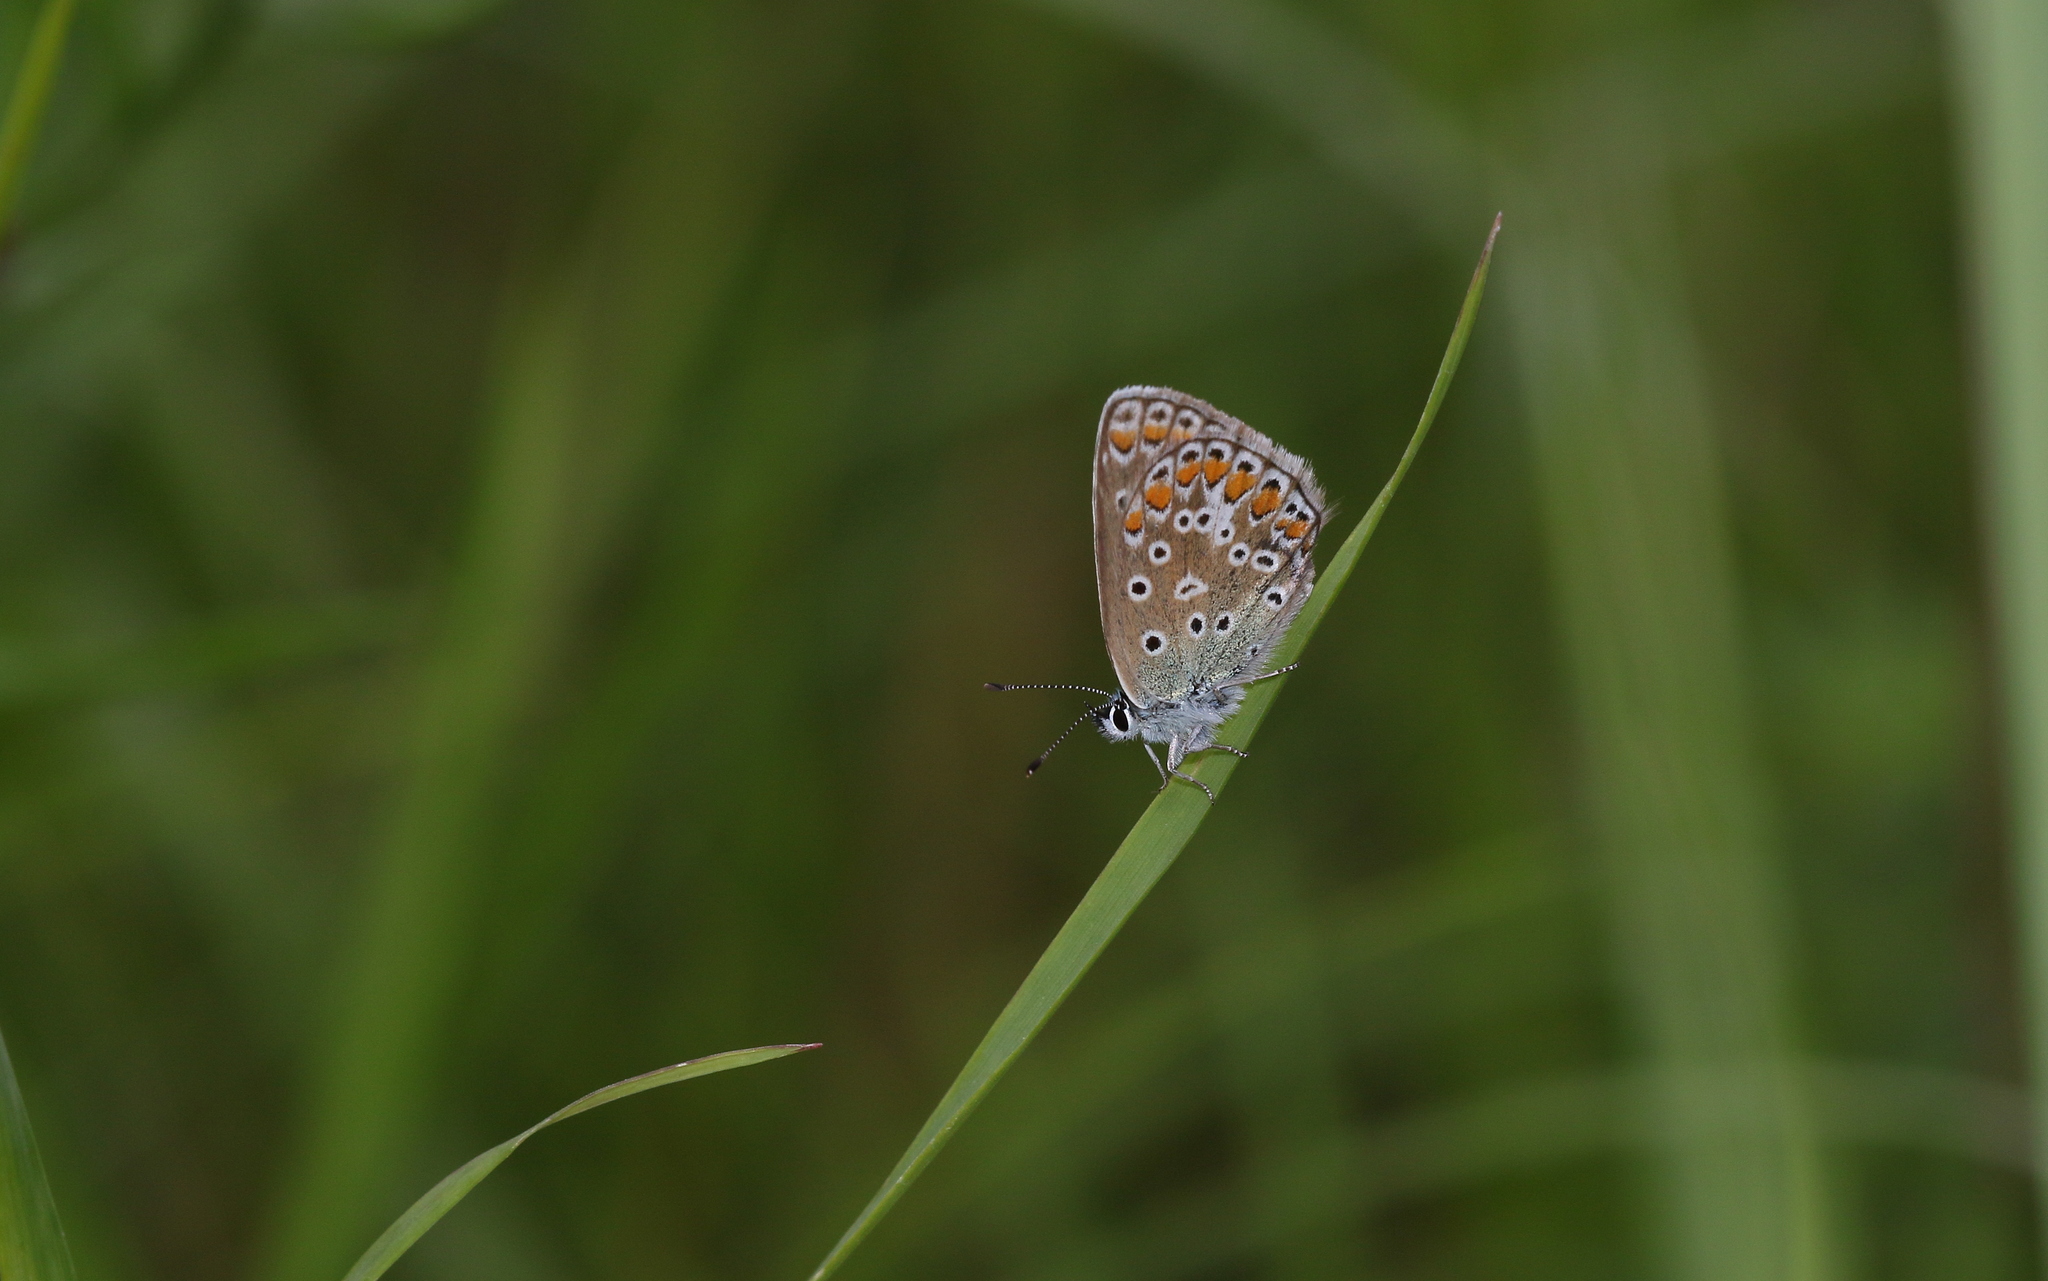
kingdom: Animalia
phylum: Arthropoda
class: Insecta
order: Lepidoptera
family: Lycaenidae
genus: Polyommatus
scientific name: Polyommatus icarus
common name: Common blue
